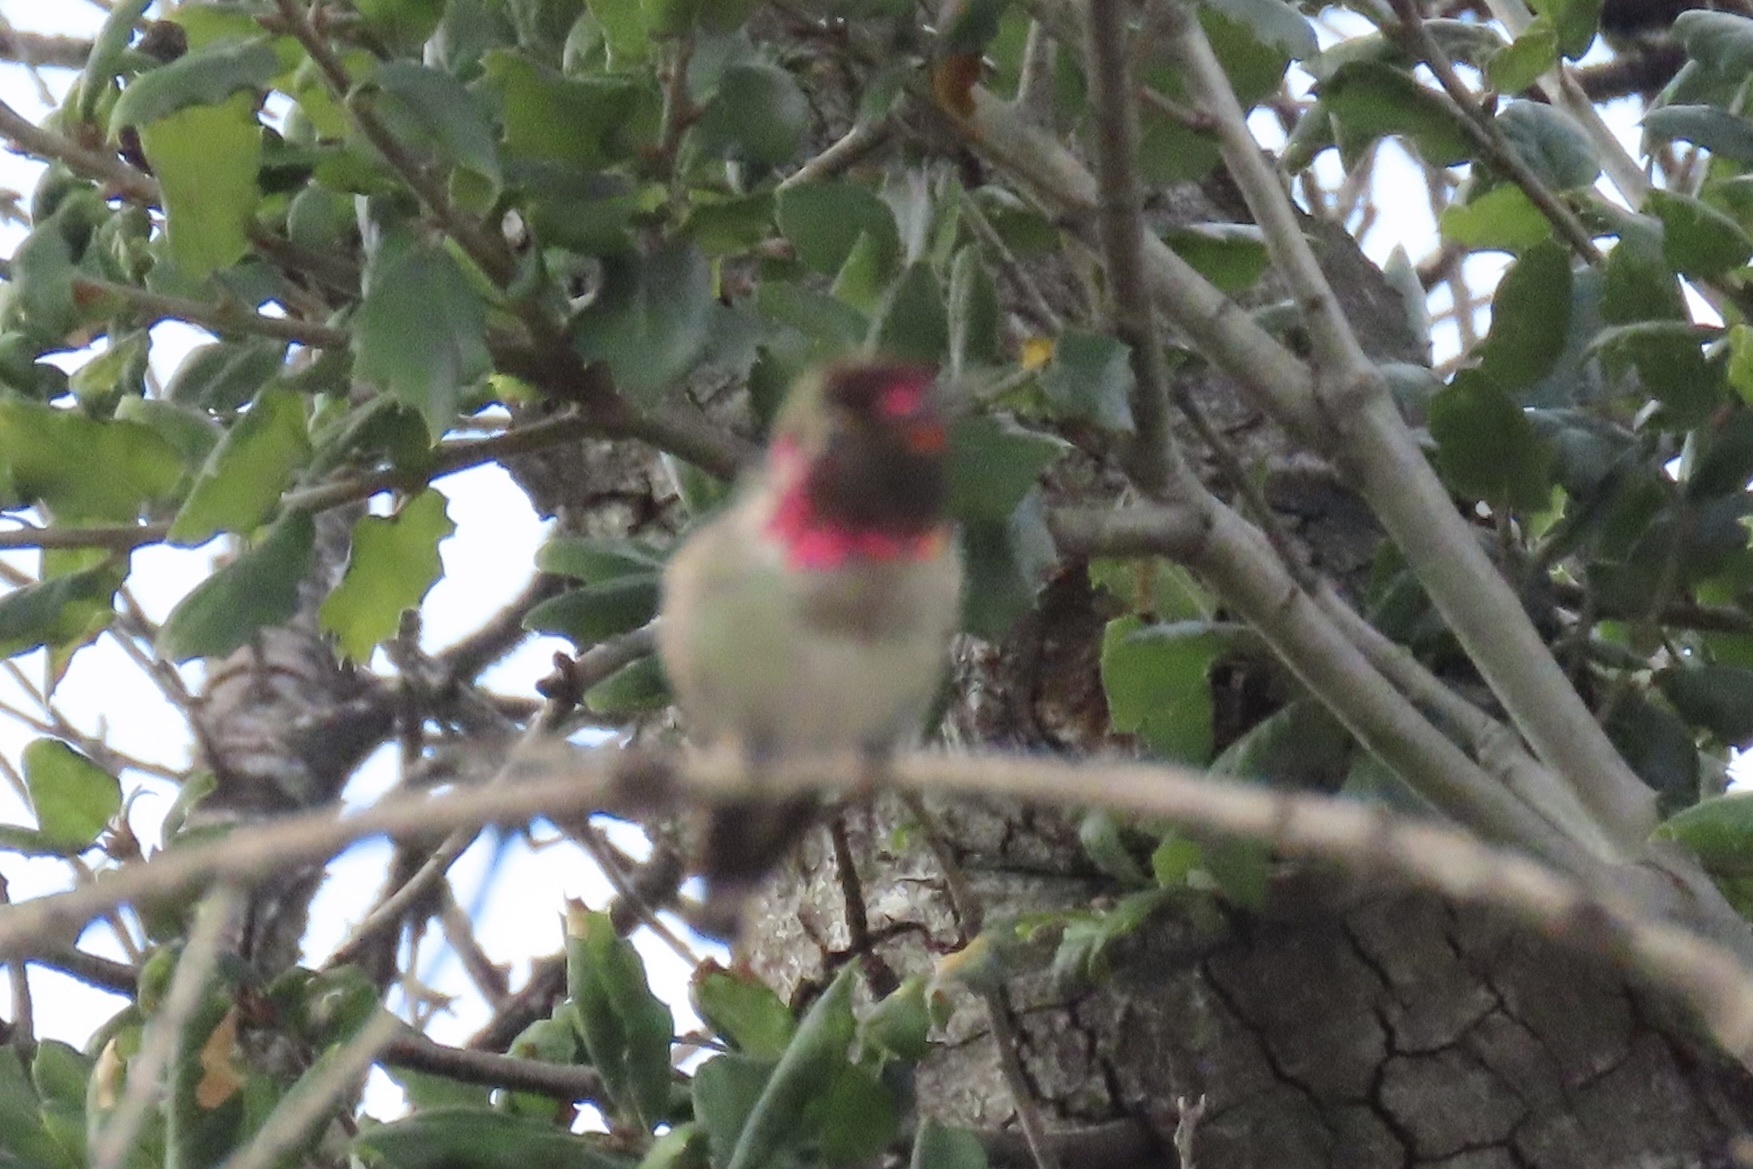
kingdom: Animalia
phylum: Chordata
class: Aves
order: Apodiformes
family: Trochilidae
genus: Calypte
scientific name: Calypte anna
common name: Anna's hummingbird
